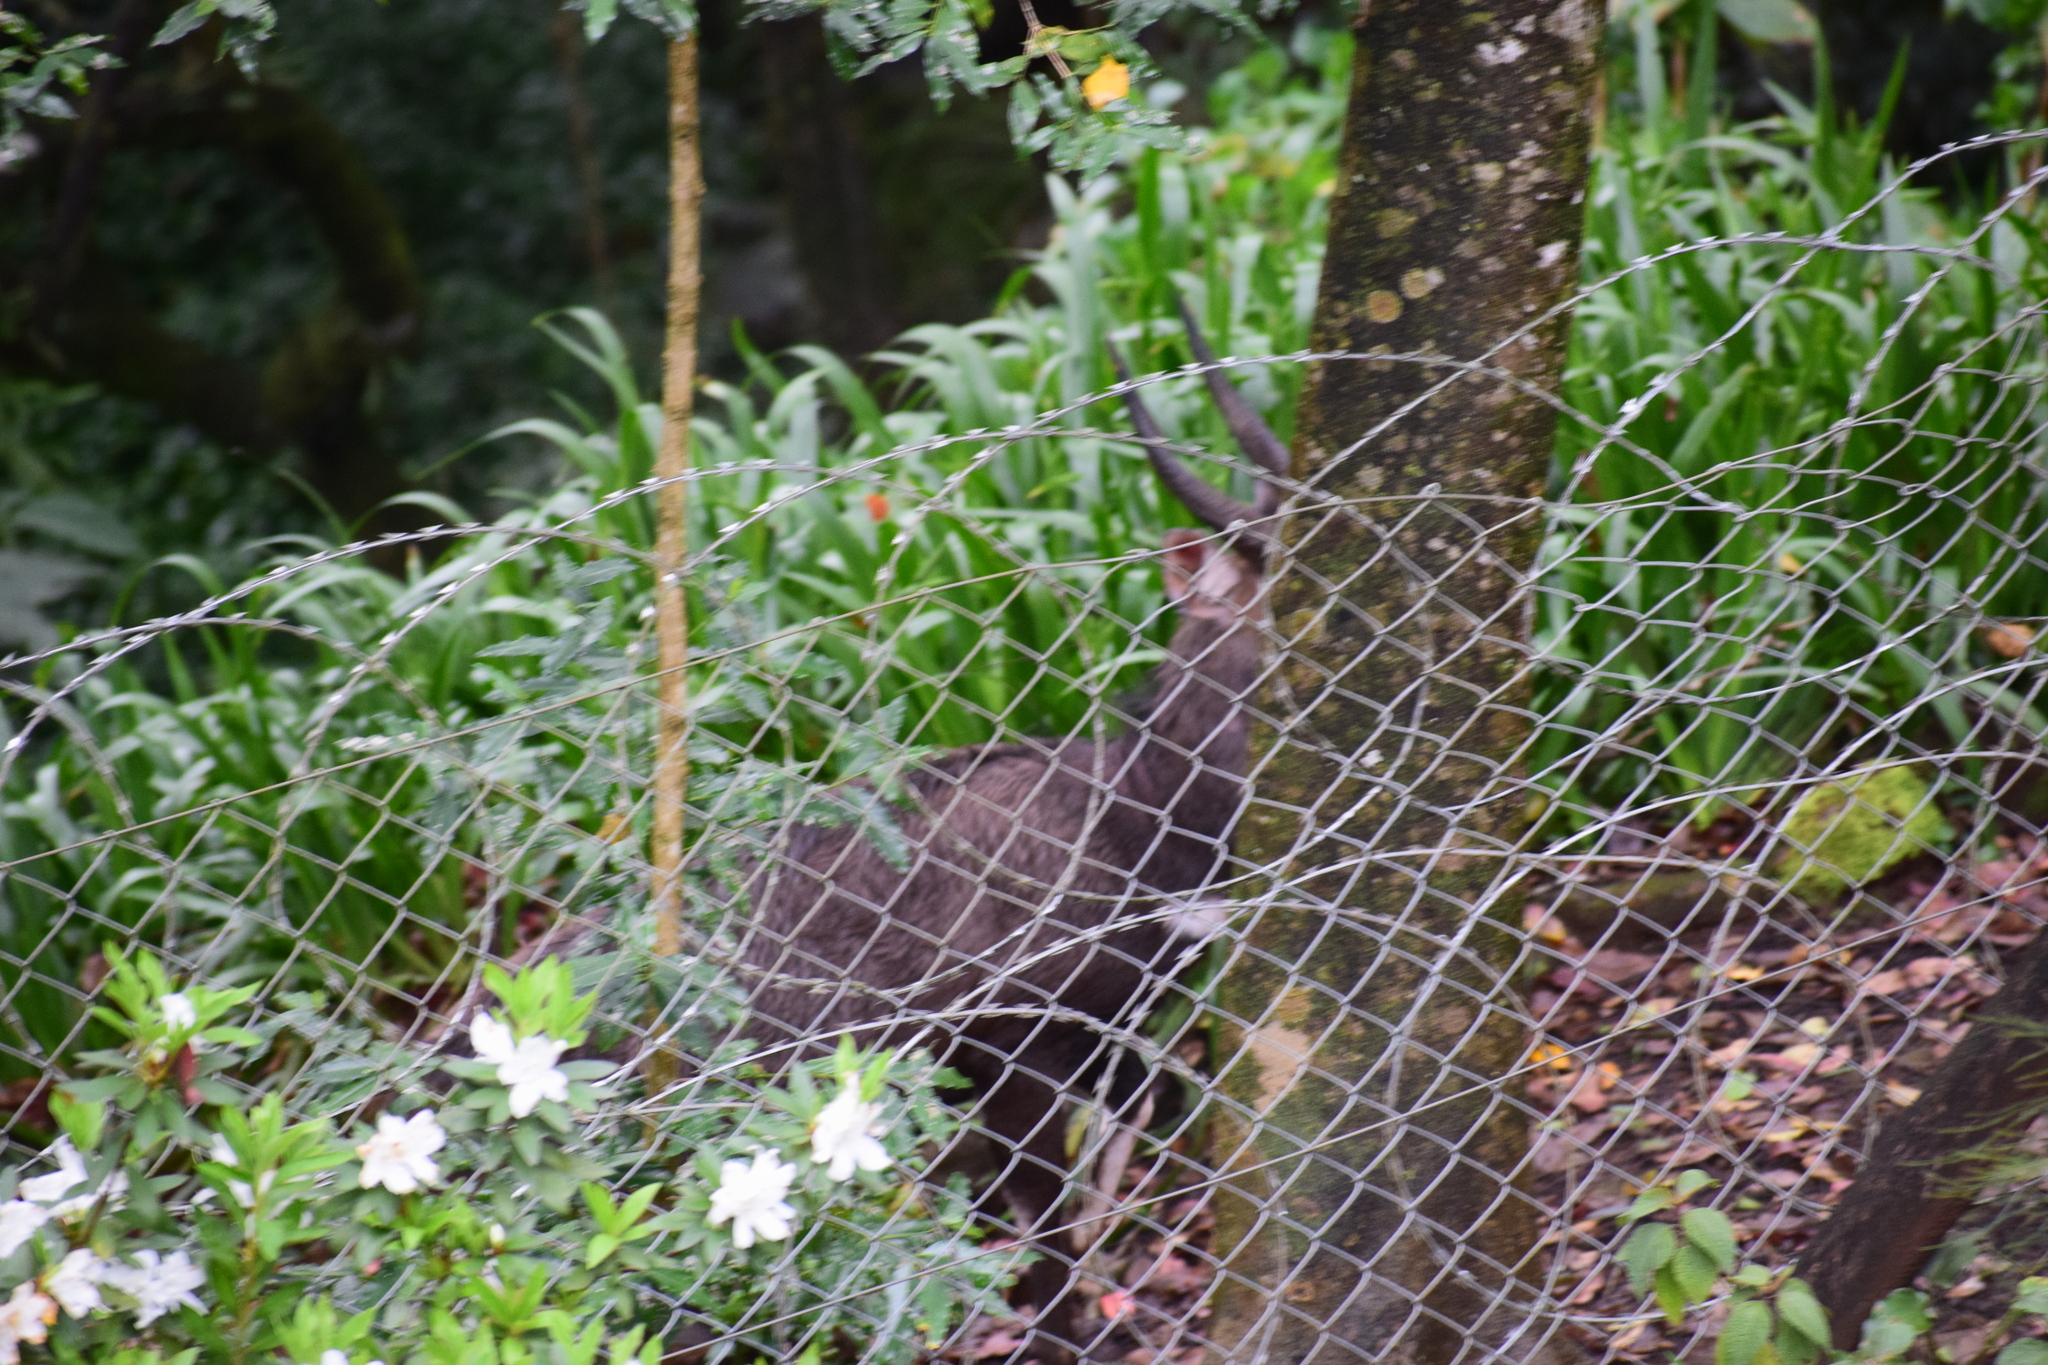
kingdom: Animalia
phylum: Chordata
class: Mammalia
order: Artiodactyla
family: Bovidae
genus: Tragelaphus
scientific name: Tragelaphus scriptus
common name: Bushbuck
